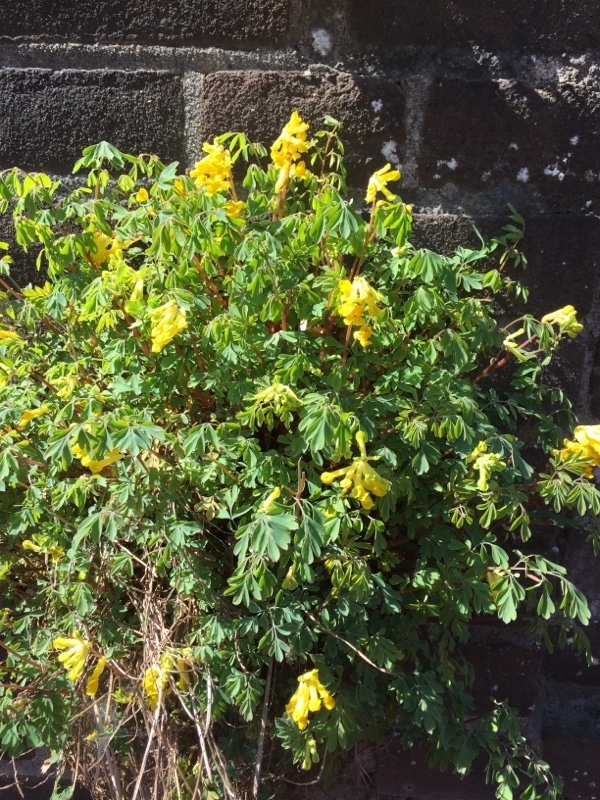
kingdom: Plantae
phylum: Tracheophyta
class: Magnoliopsida
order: Ranunculales
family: Papaveraceae
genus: Pseudofumaria
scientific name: Pseudofumaria lutea
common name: Yellow corydalis
